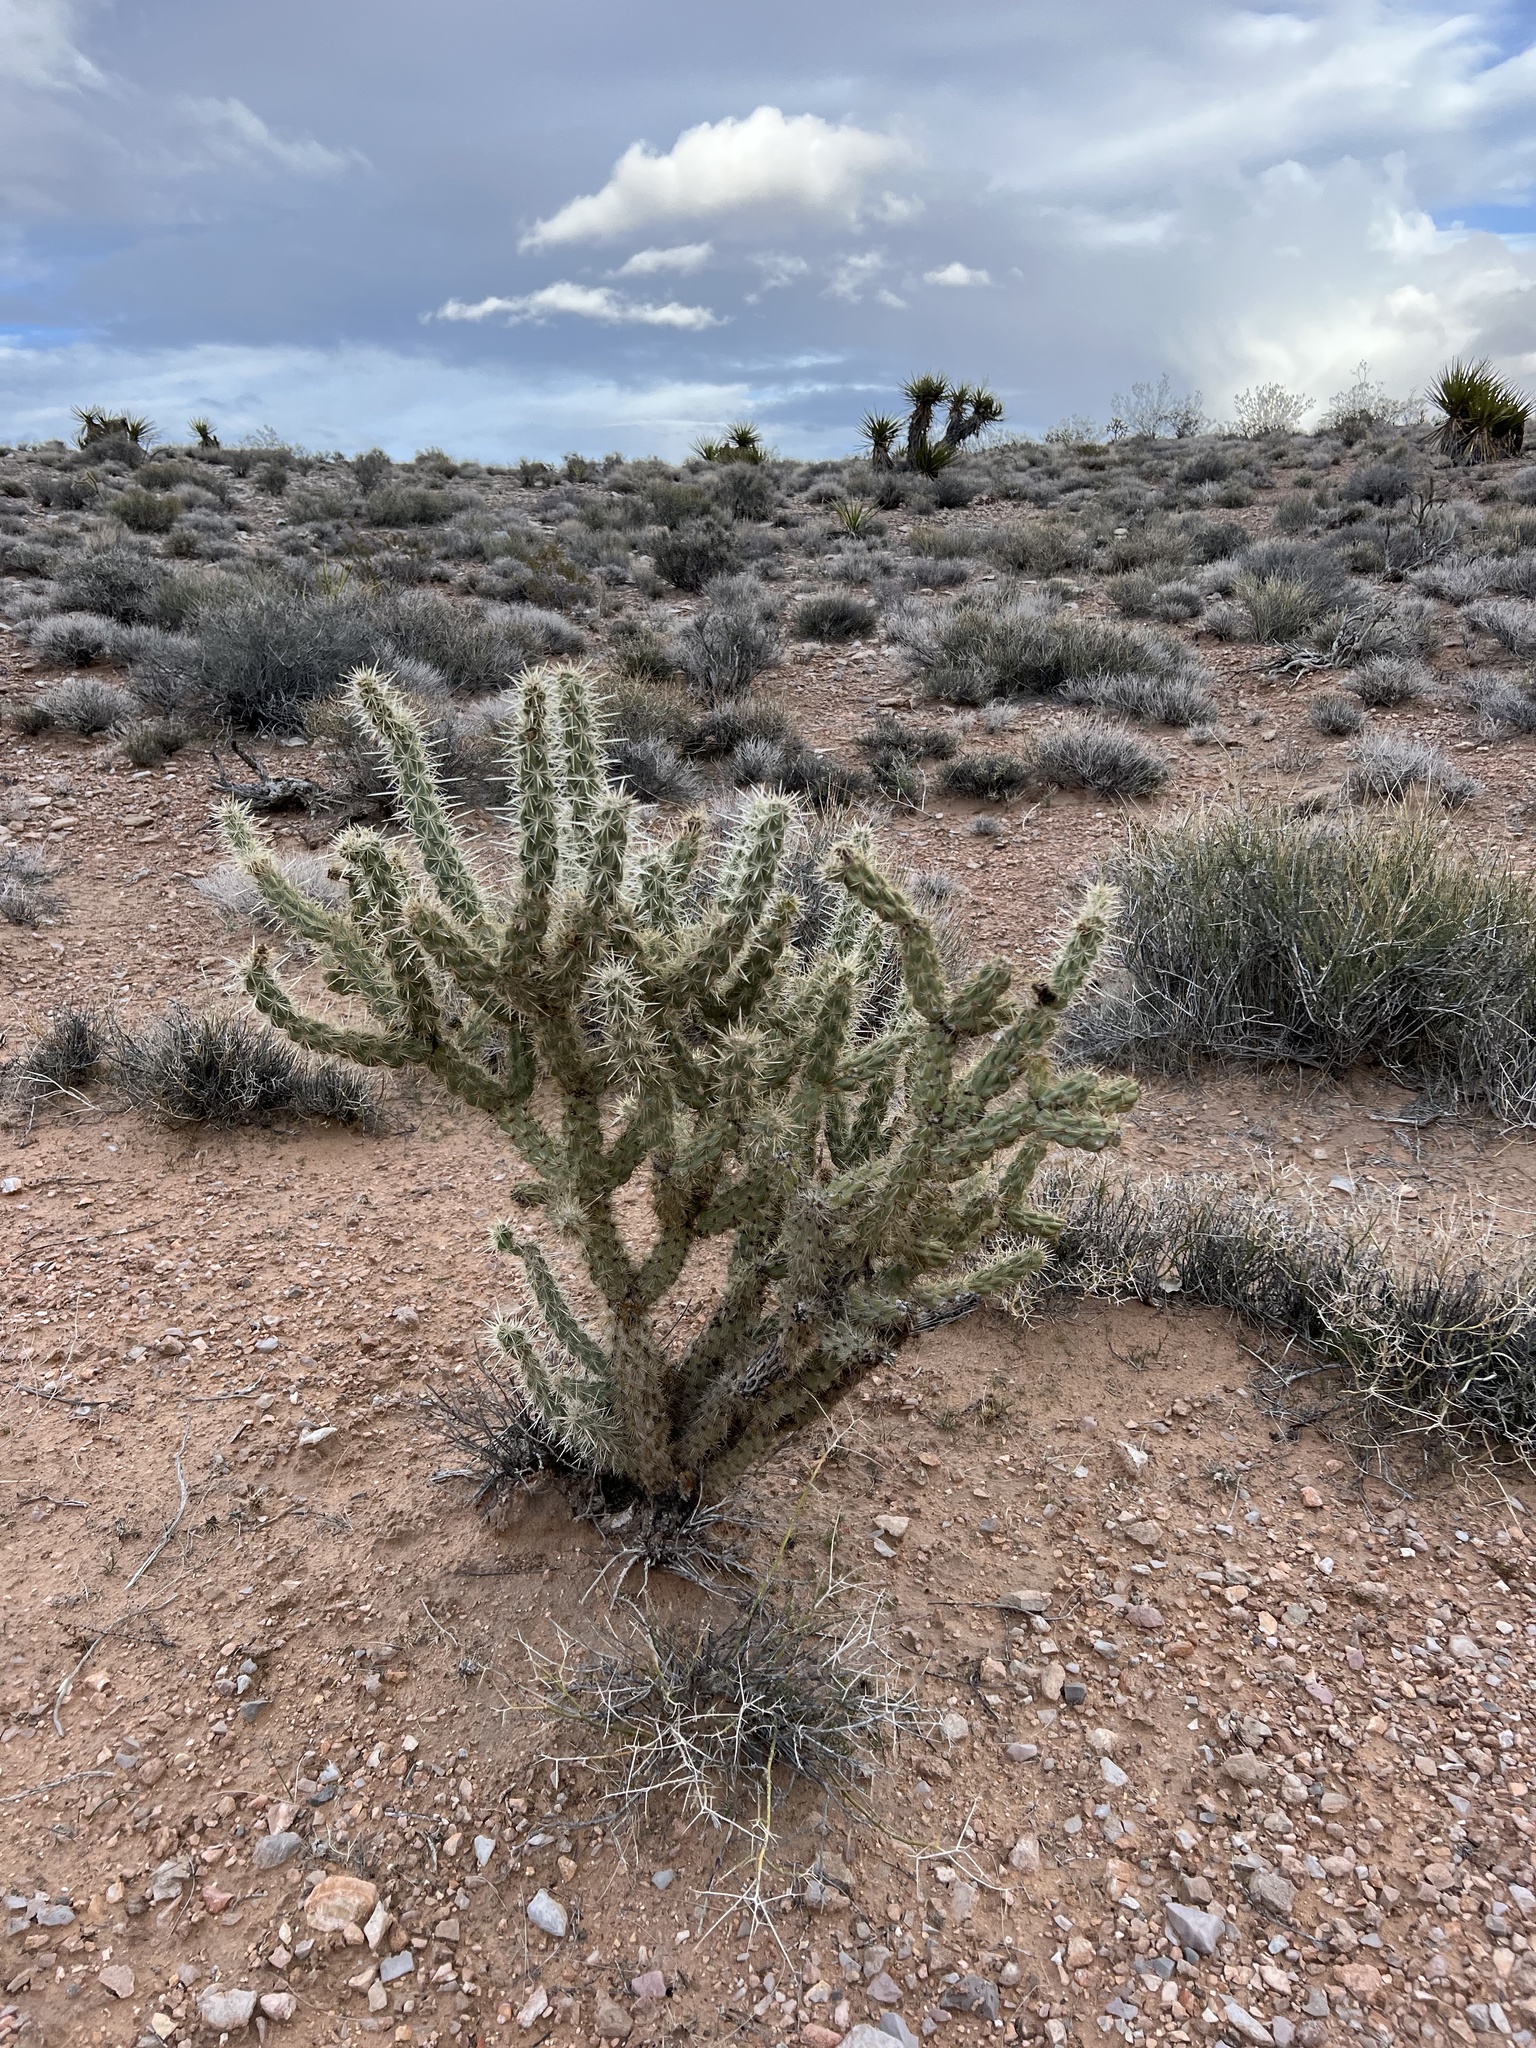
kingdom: Plantae
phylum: Tracheophyta
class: Magnoliopsida
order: Caryophyllales
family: Cactaceae
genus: Cylindropuntia
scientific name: Cylindropuntia acanthocarpa
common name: Buckhorn cholla
